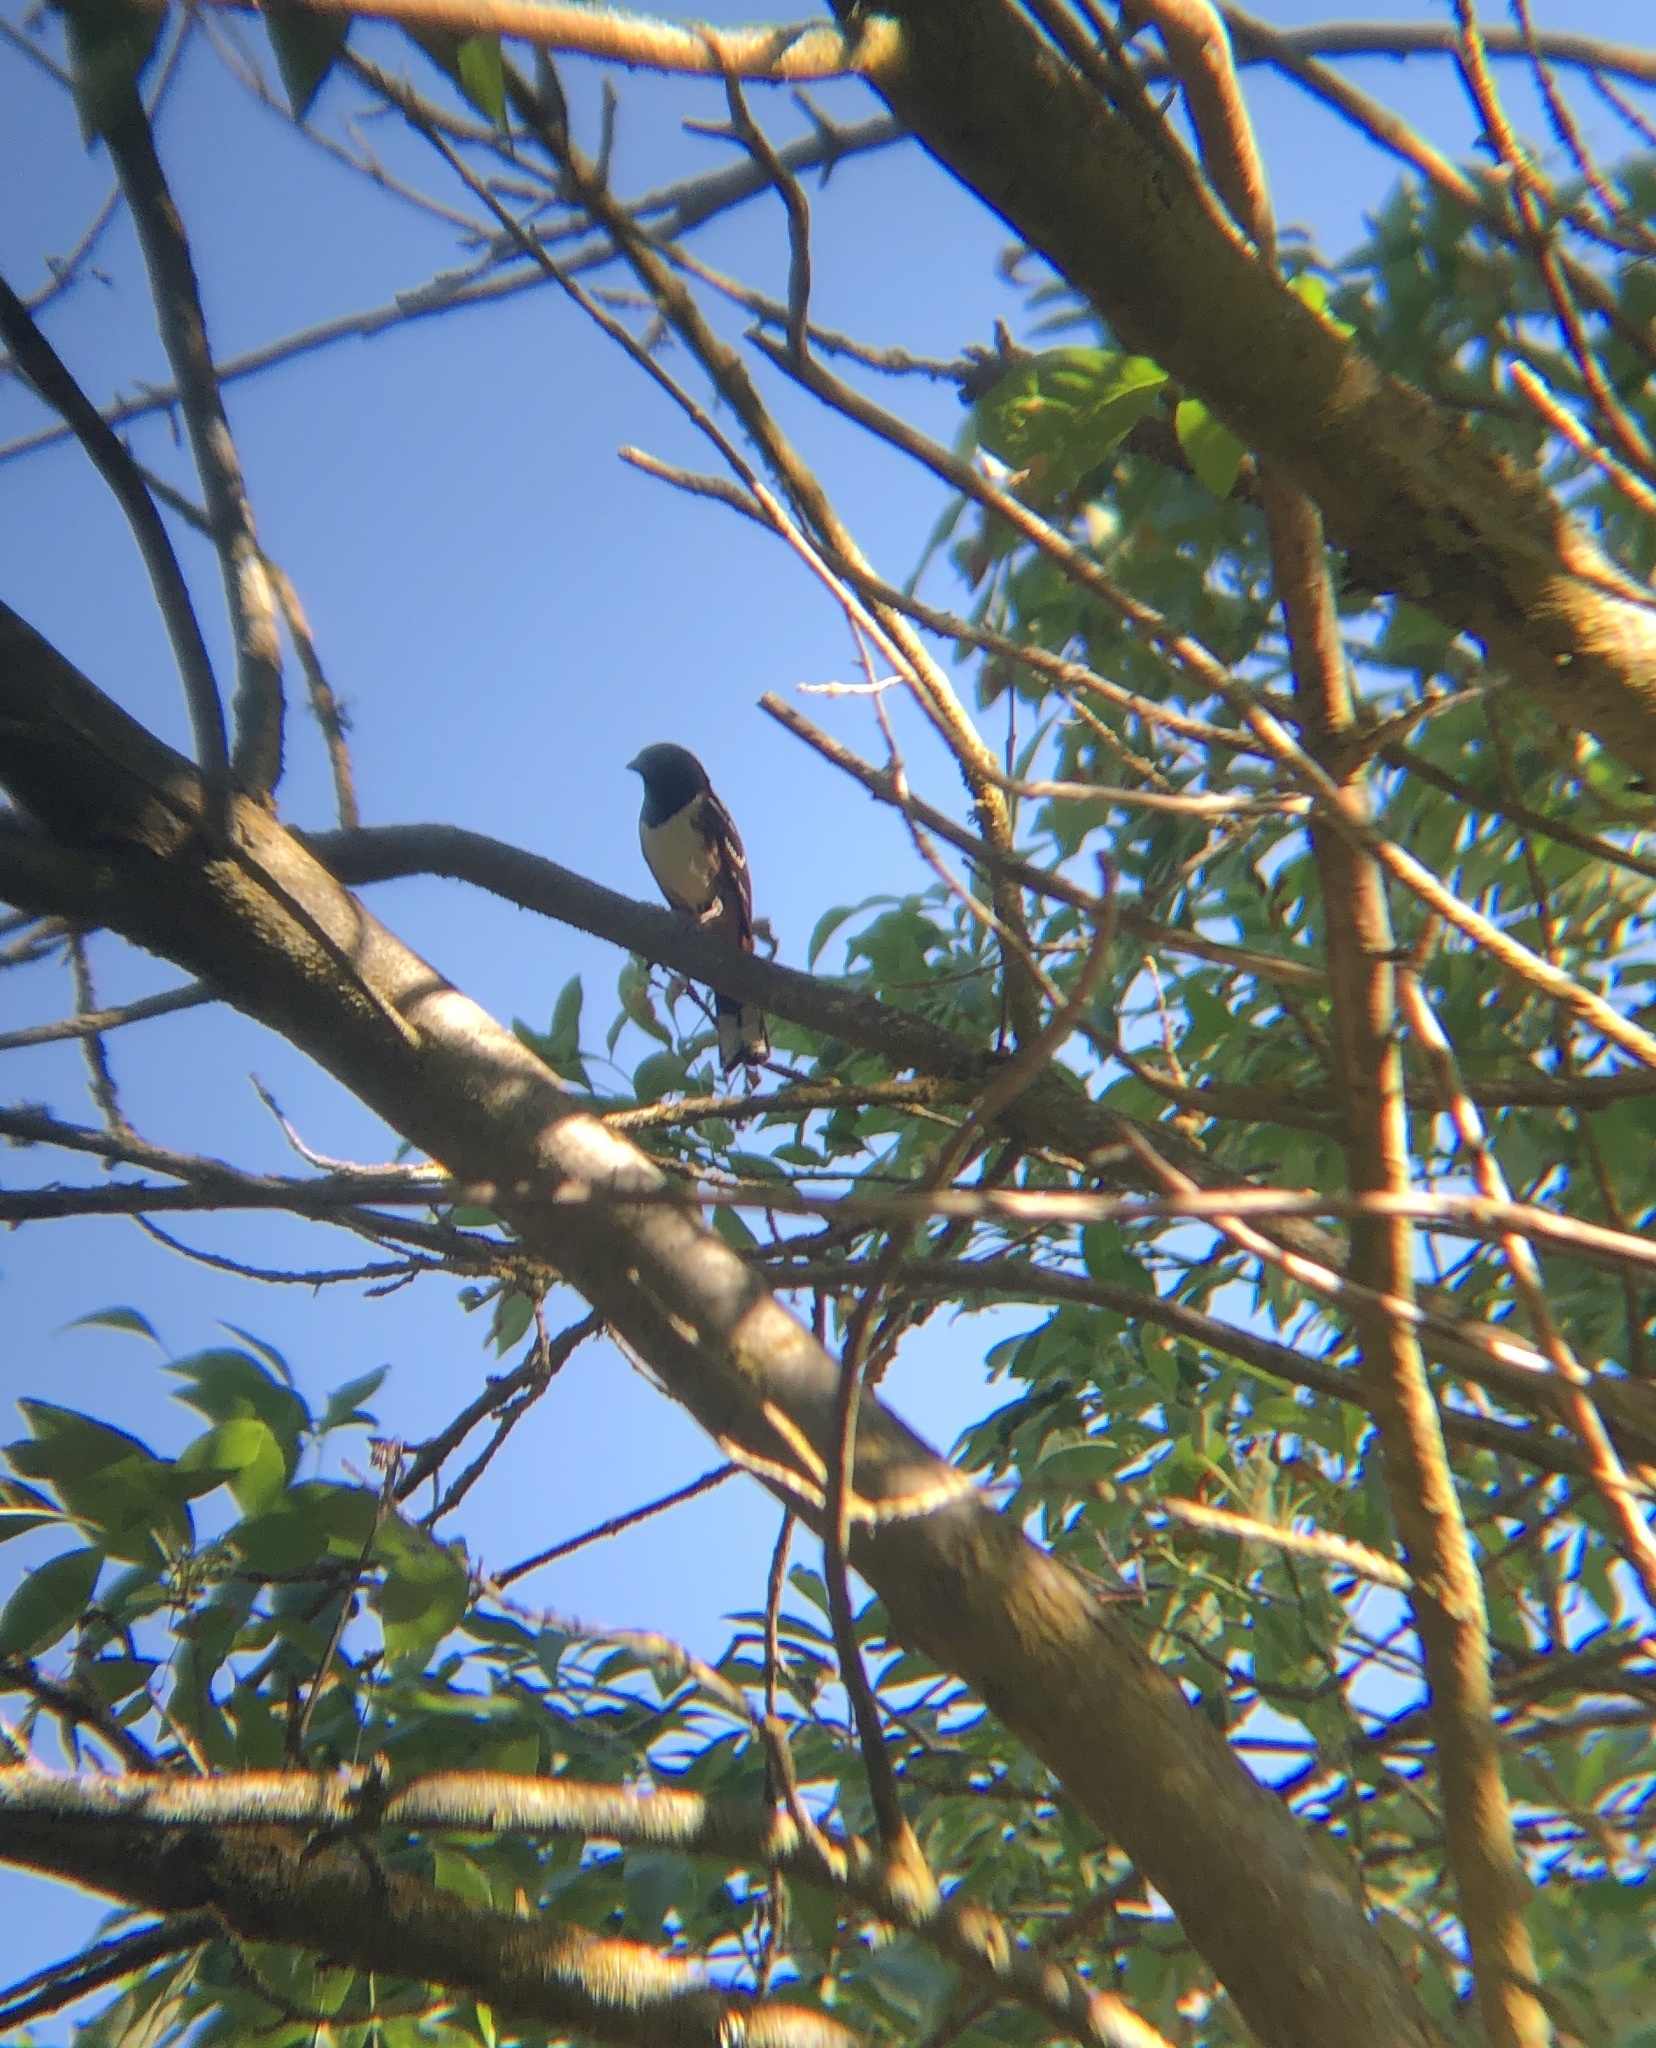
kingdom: Animalia
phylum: Chordata
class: Aves
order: Passeriformes
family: Passerellidae
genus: Pipilo
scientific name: Pipilo maculatus
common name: Spotted towhee
